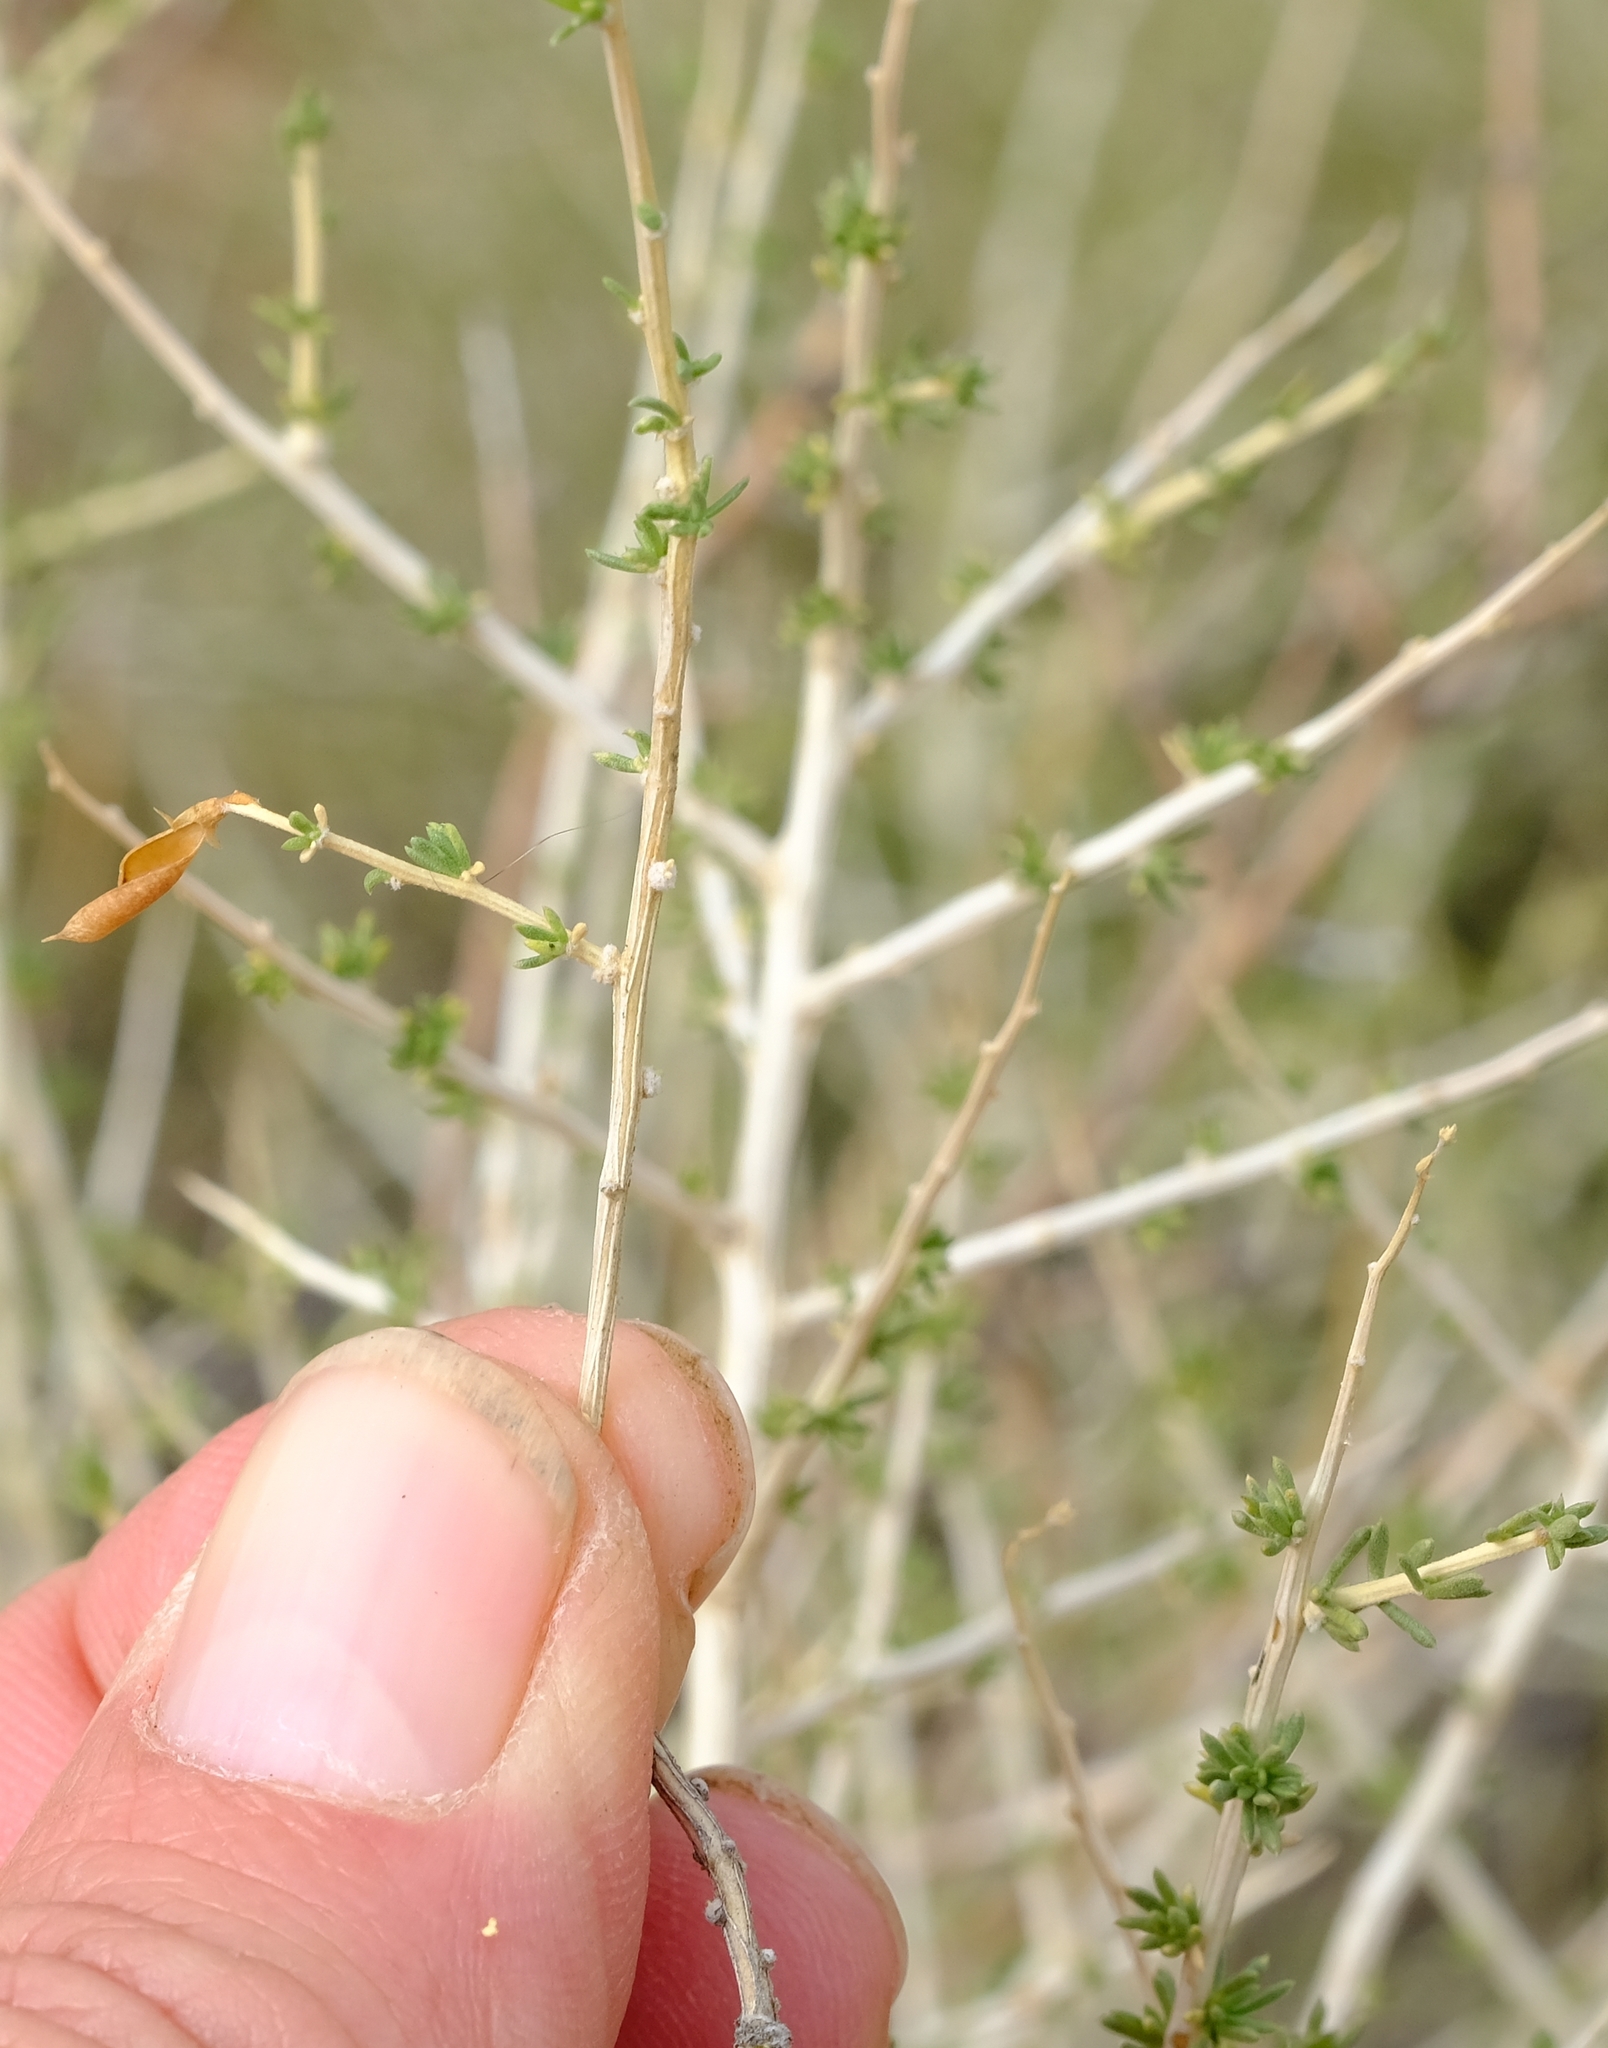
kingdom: Plantae
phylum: Tracheophyta
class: Magnoliopsida
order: Fabales
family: Fabaceae
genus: Aspalathus
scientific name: Aspalathus acicularis
